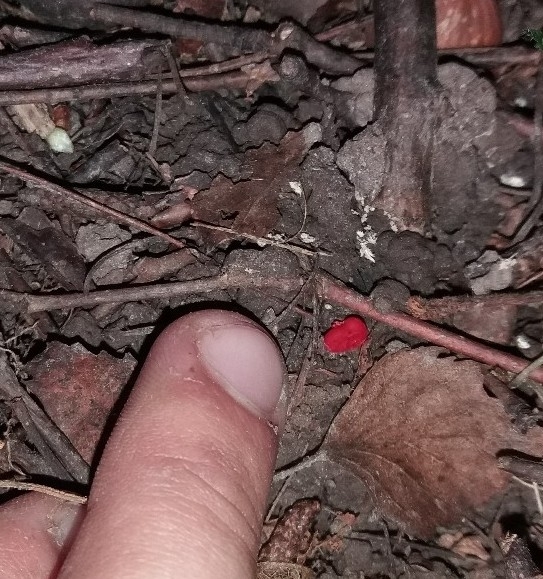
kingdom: Animalia
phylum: Arthropoda
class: Arachnida
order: Trombidiformes
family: Trombidiidae
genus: Trombidium
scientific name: Trombidium
